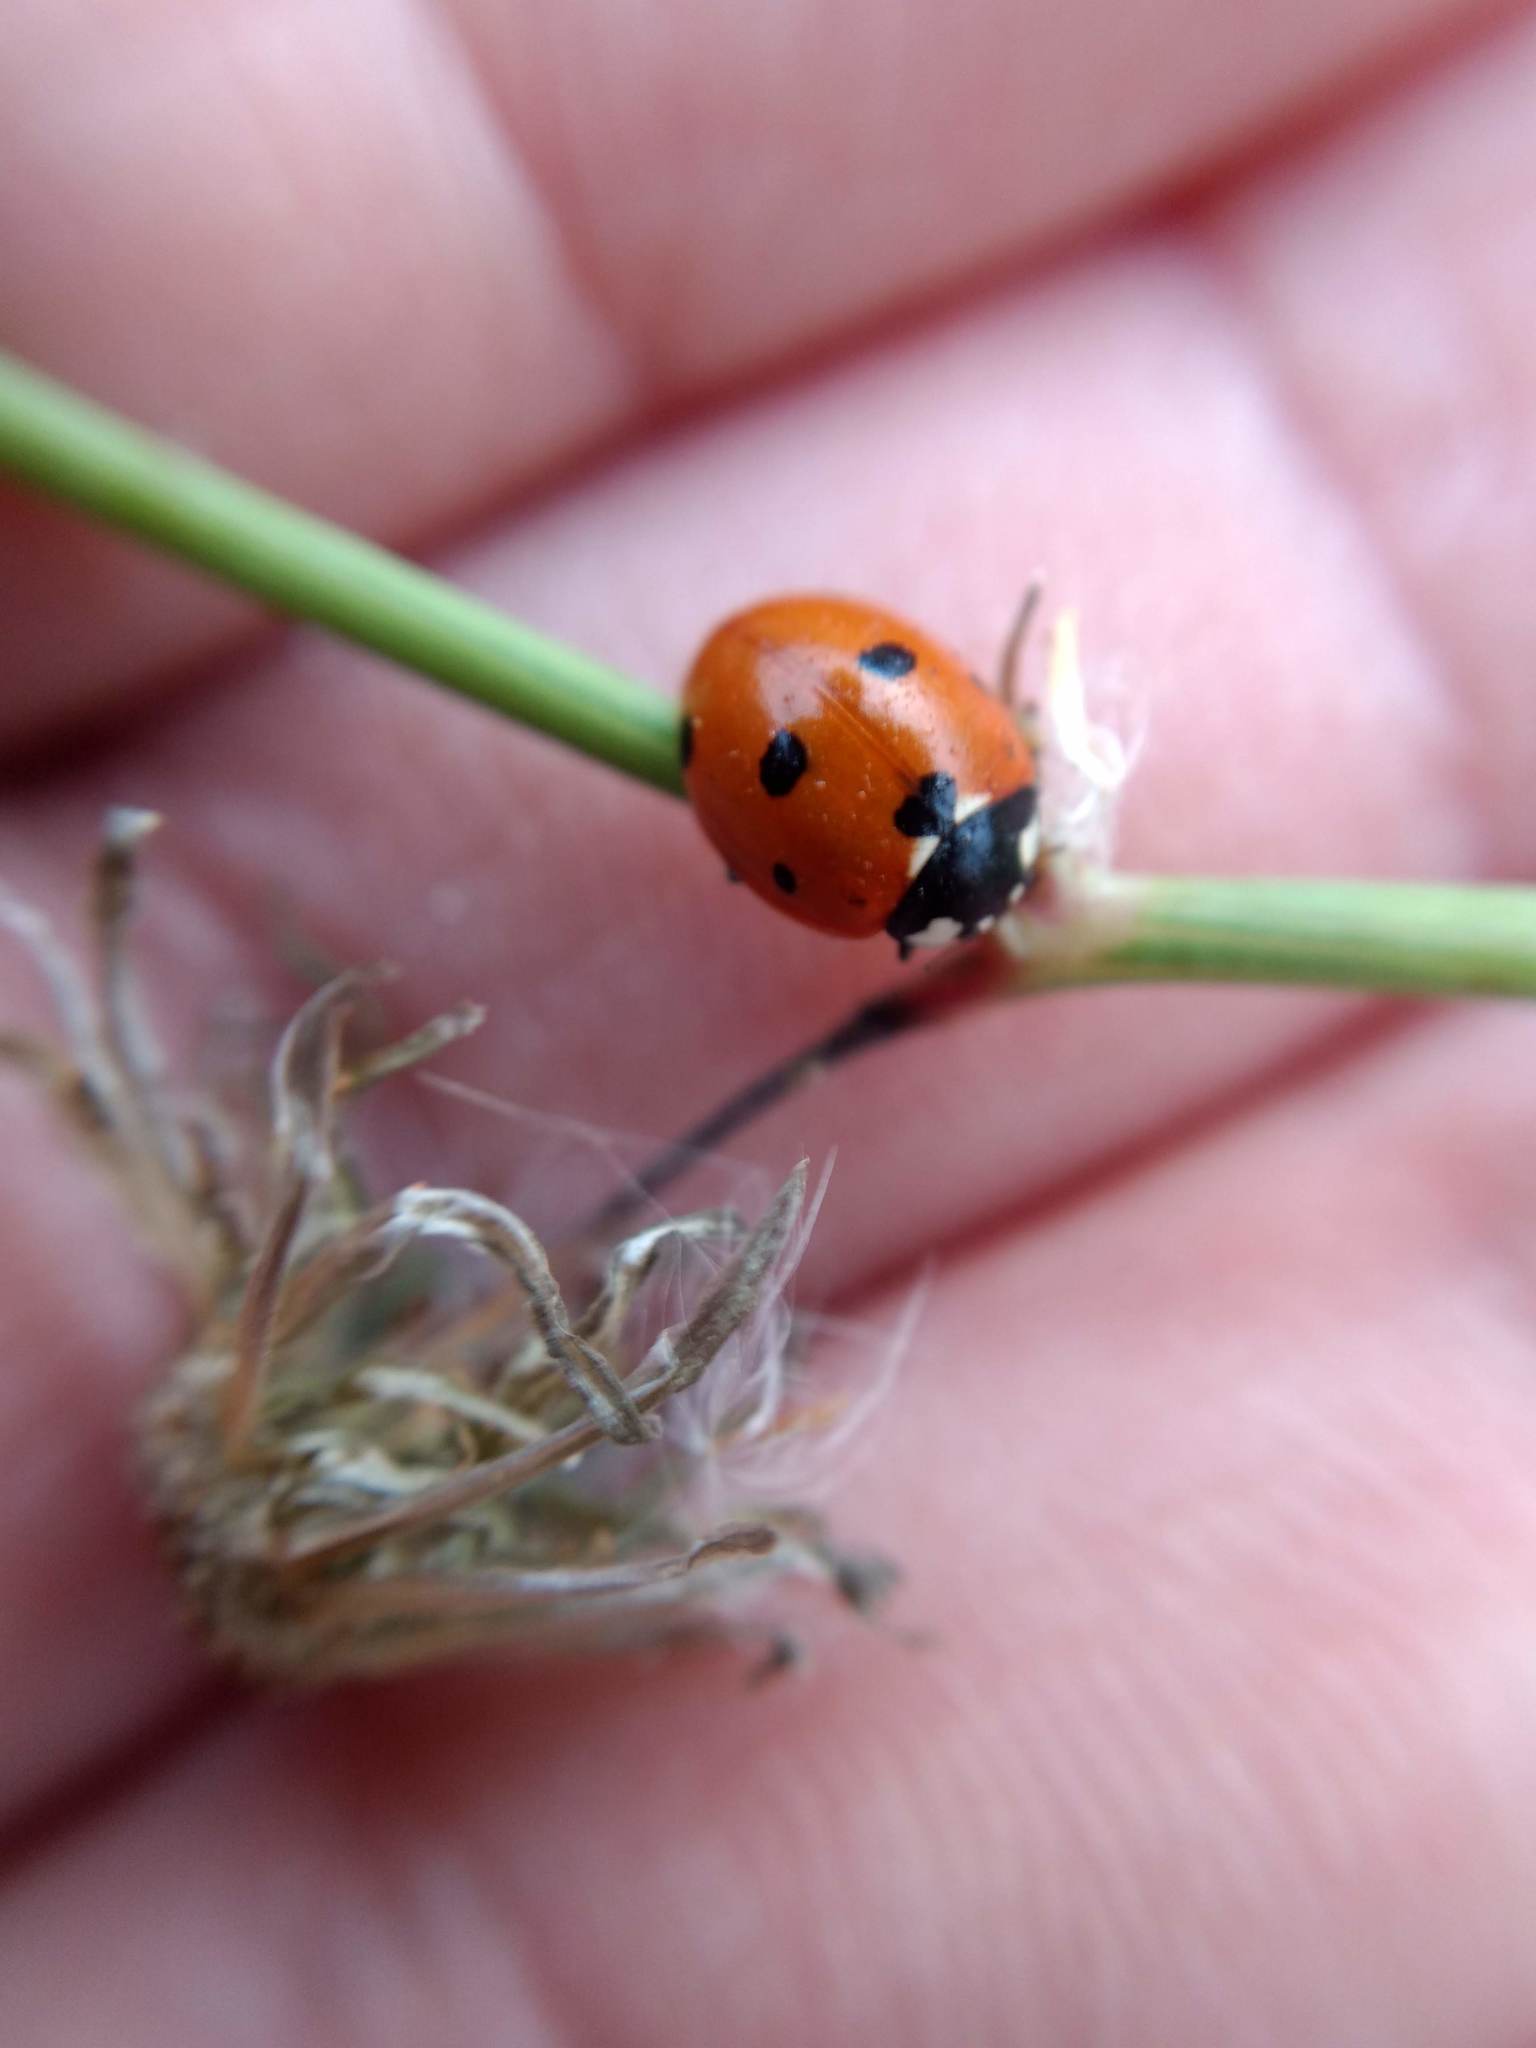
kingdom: Animalia
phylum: Arthropoda
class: Insecta
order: Coleoptera
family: Coccinellidae
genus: Coccinella
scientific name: Coccinella septempunctata
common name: Sevenspotted lady beetle
